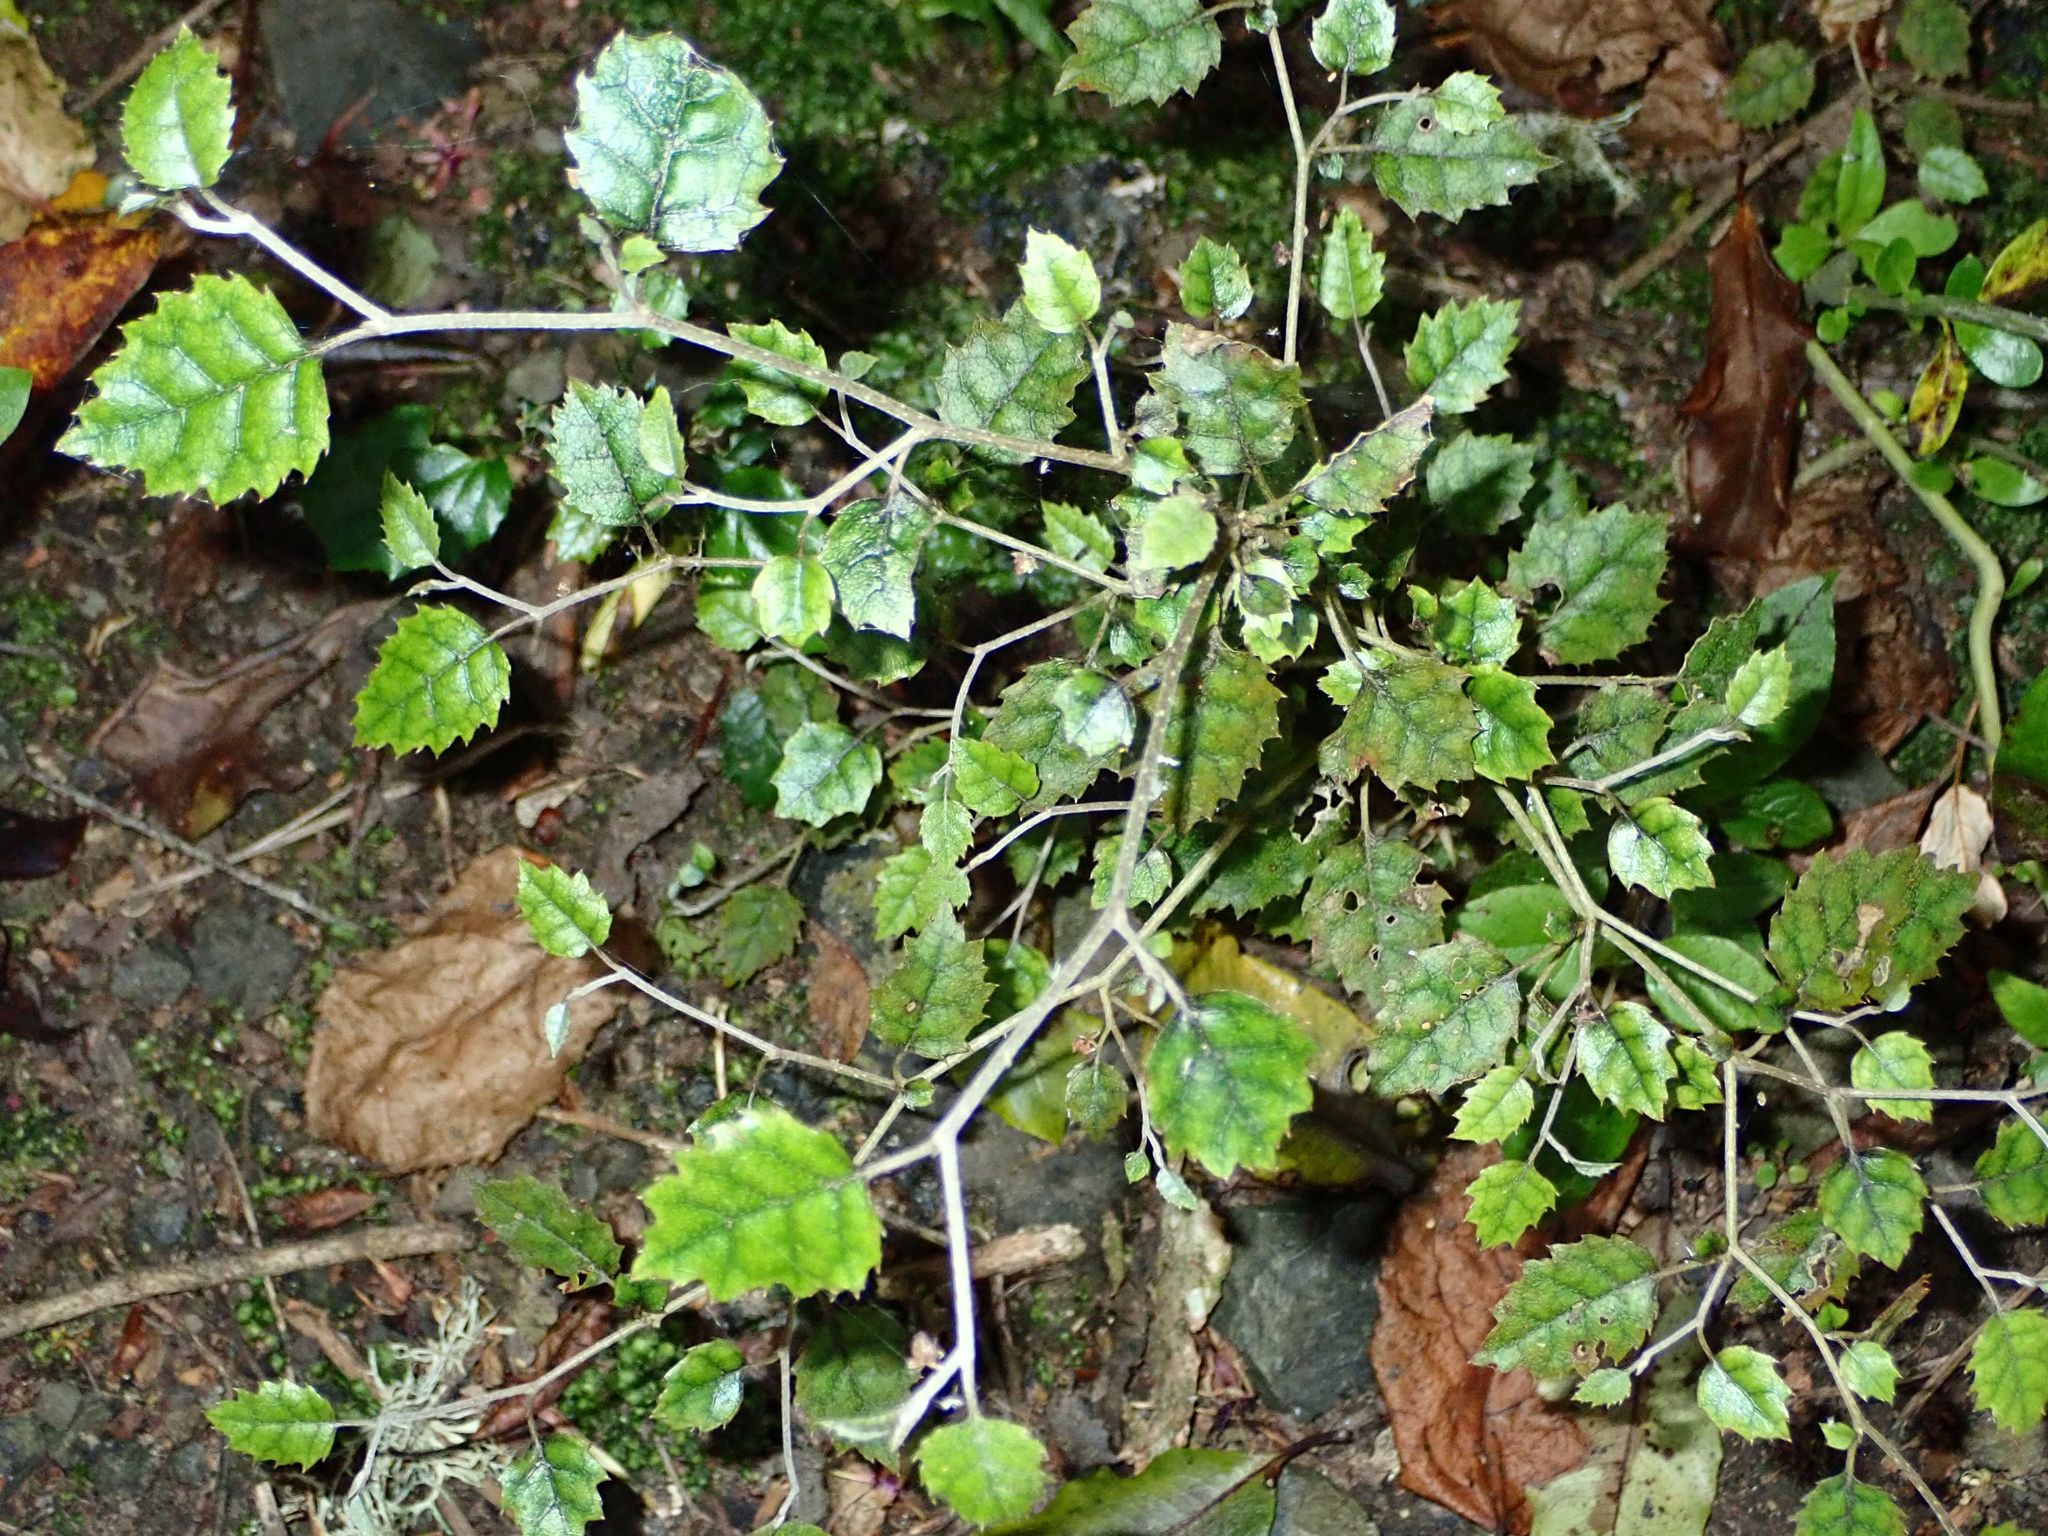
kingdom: Plantae
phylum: Tracheophyta
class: Magnoliopsida
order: Asterales
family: Rousseaceae
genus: Carpodetus
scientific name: Carpodetus serratus
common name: White mapau
